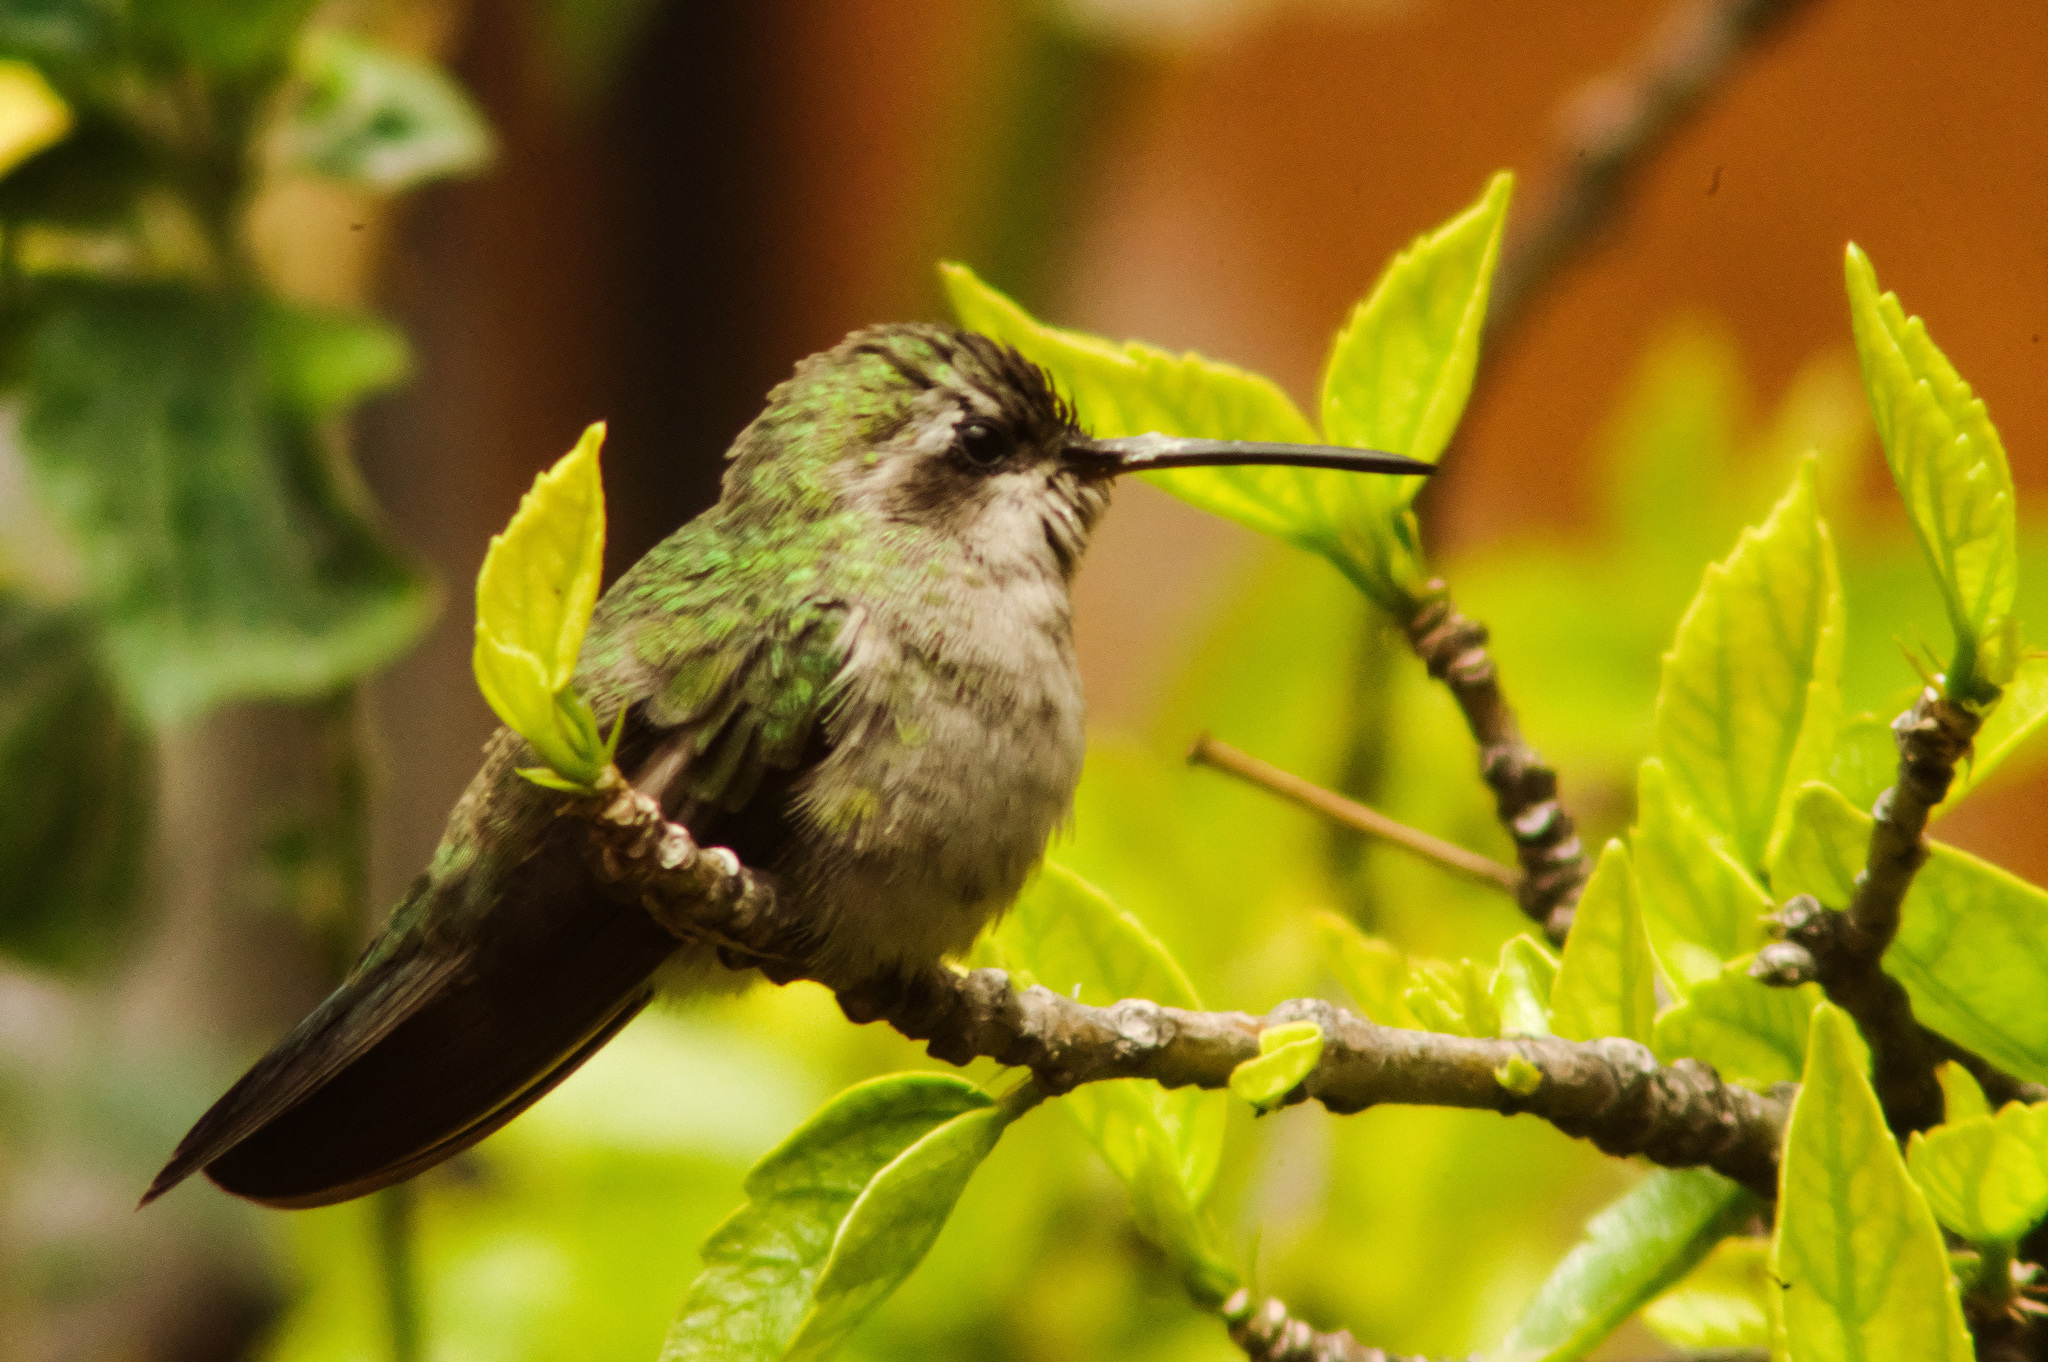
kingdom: Animalia
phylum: Chordata
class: Aves
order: Apodiformes
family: Trochilidae
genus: Cynanthus
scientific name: Cynanthus latirostris
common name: Broad-billed hummingbird
